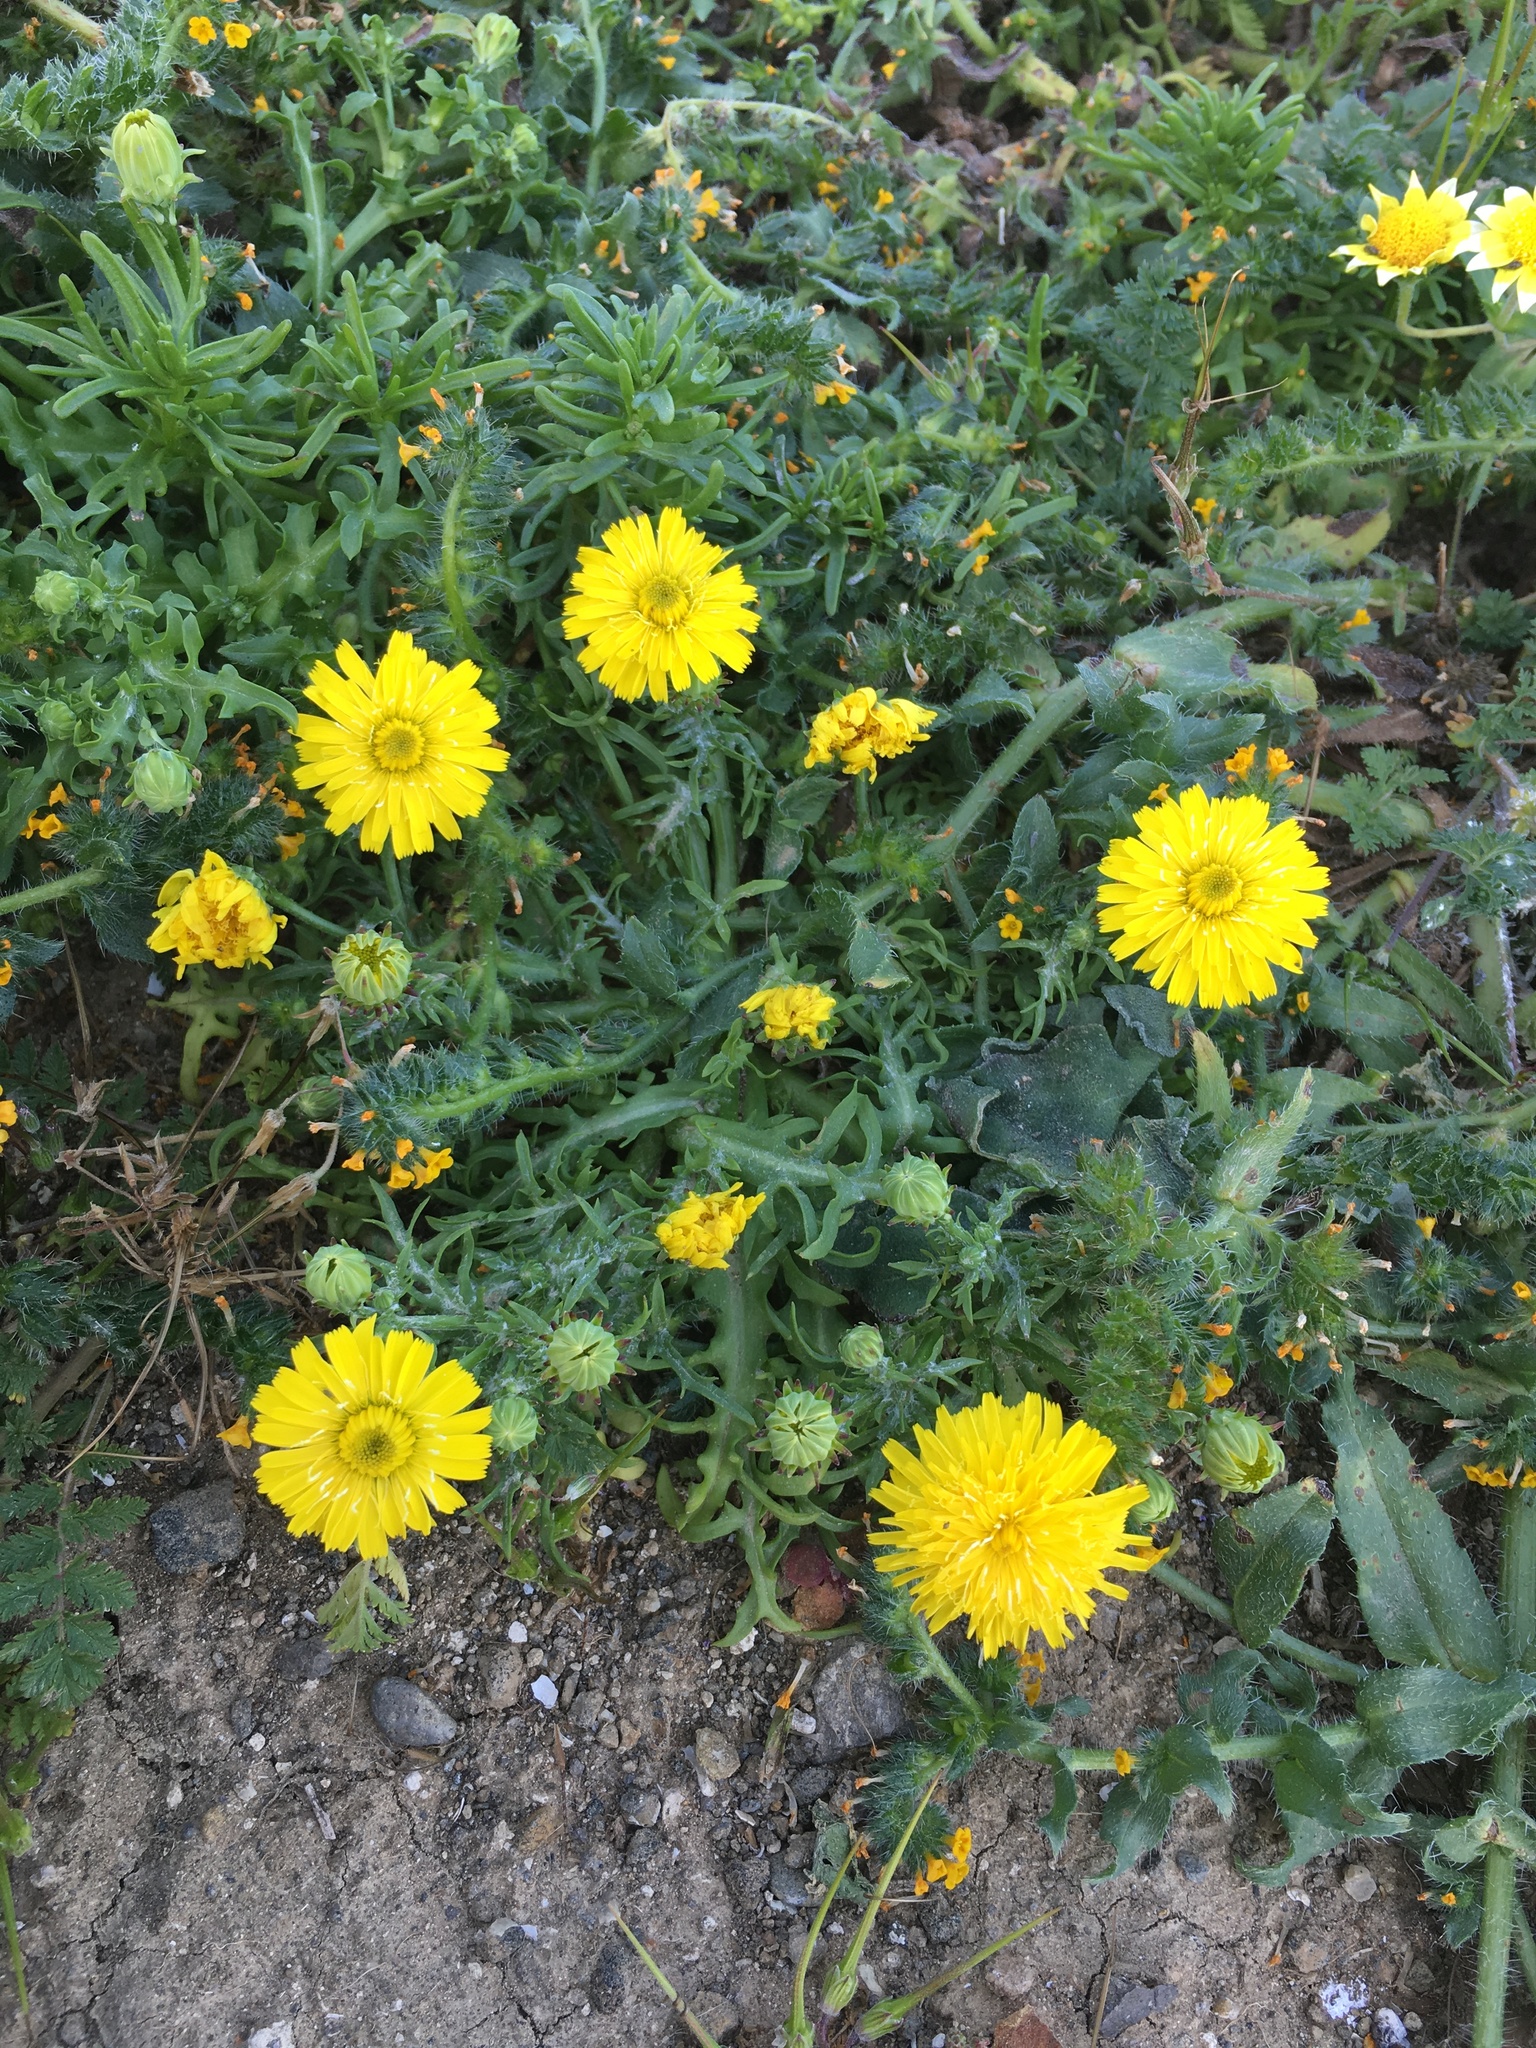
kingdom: Plantae
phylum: Tracheophyta
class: Magnoliopsida
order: Asterales
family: Asteraceae
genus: Malacothrix
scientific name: Malacothrix foliosa
